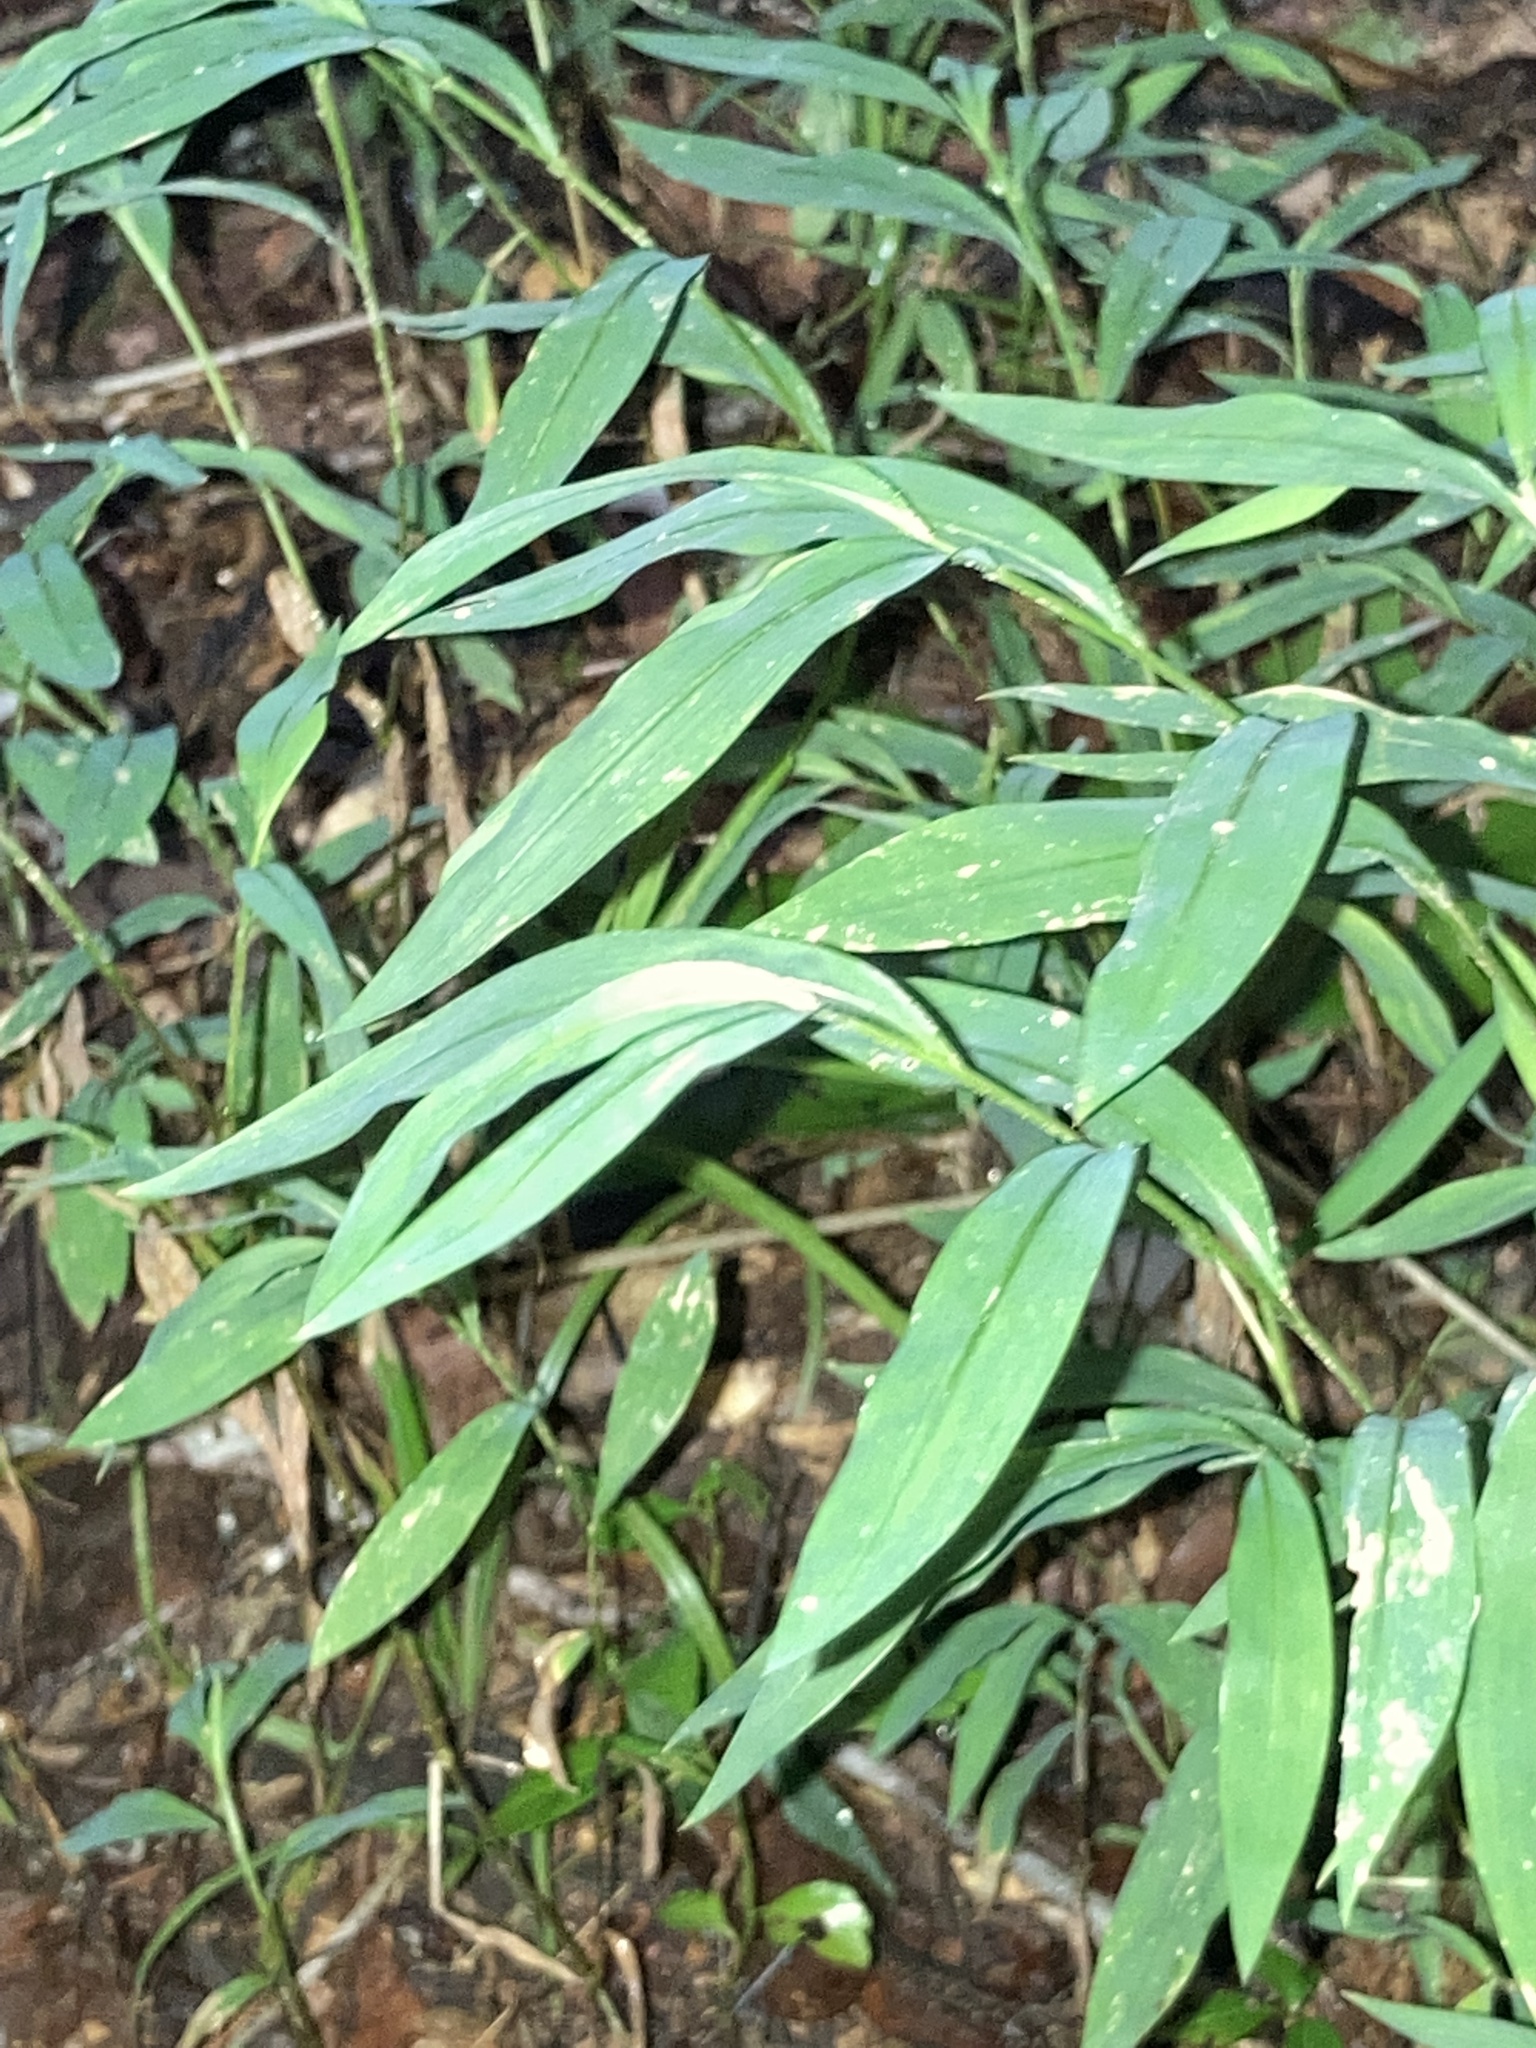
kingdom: Plantae
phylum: Tracheophyta
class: Liliopsida
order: Poales
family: Poaceae
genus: Microstegium
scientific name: Microstegium vimineum
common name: Japanese stiltgrass
